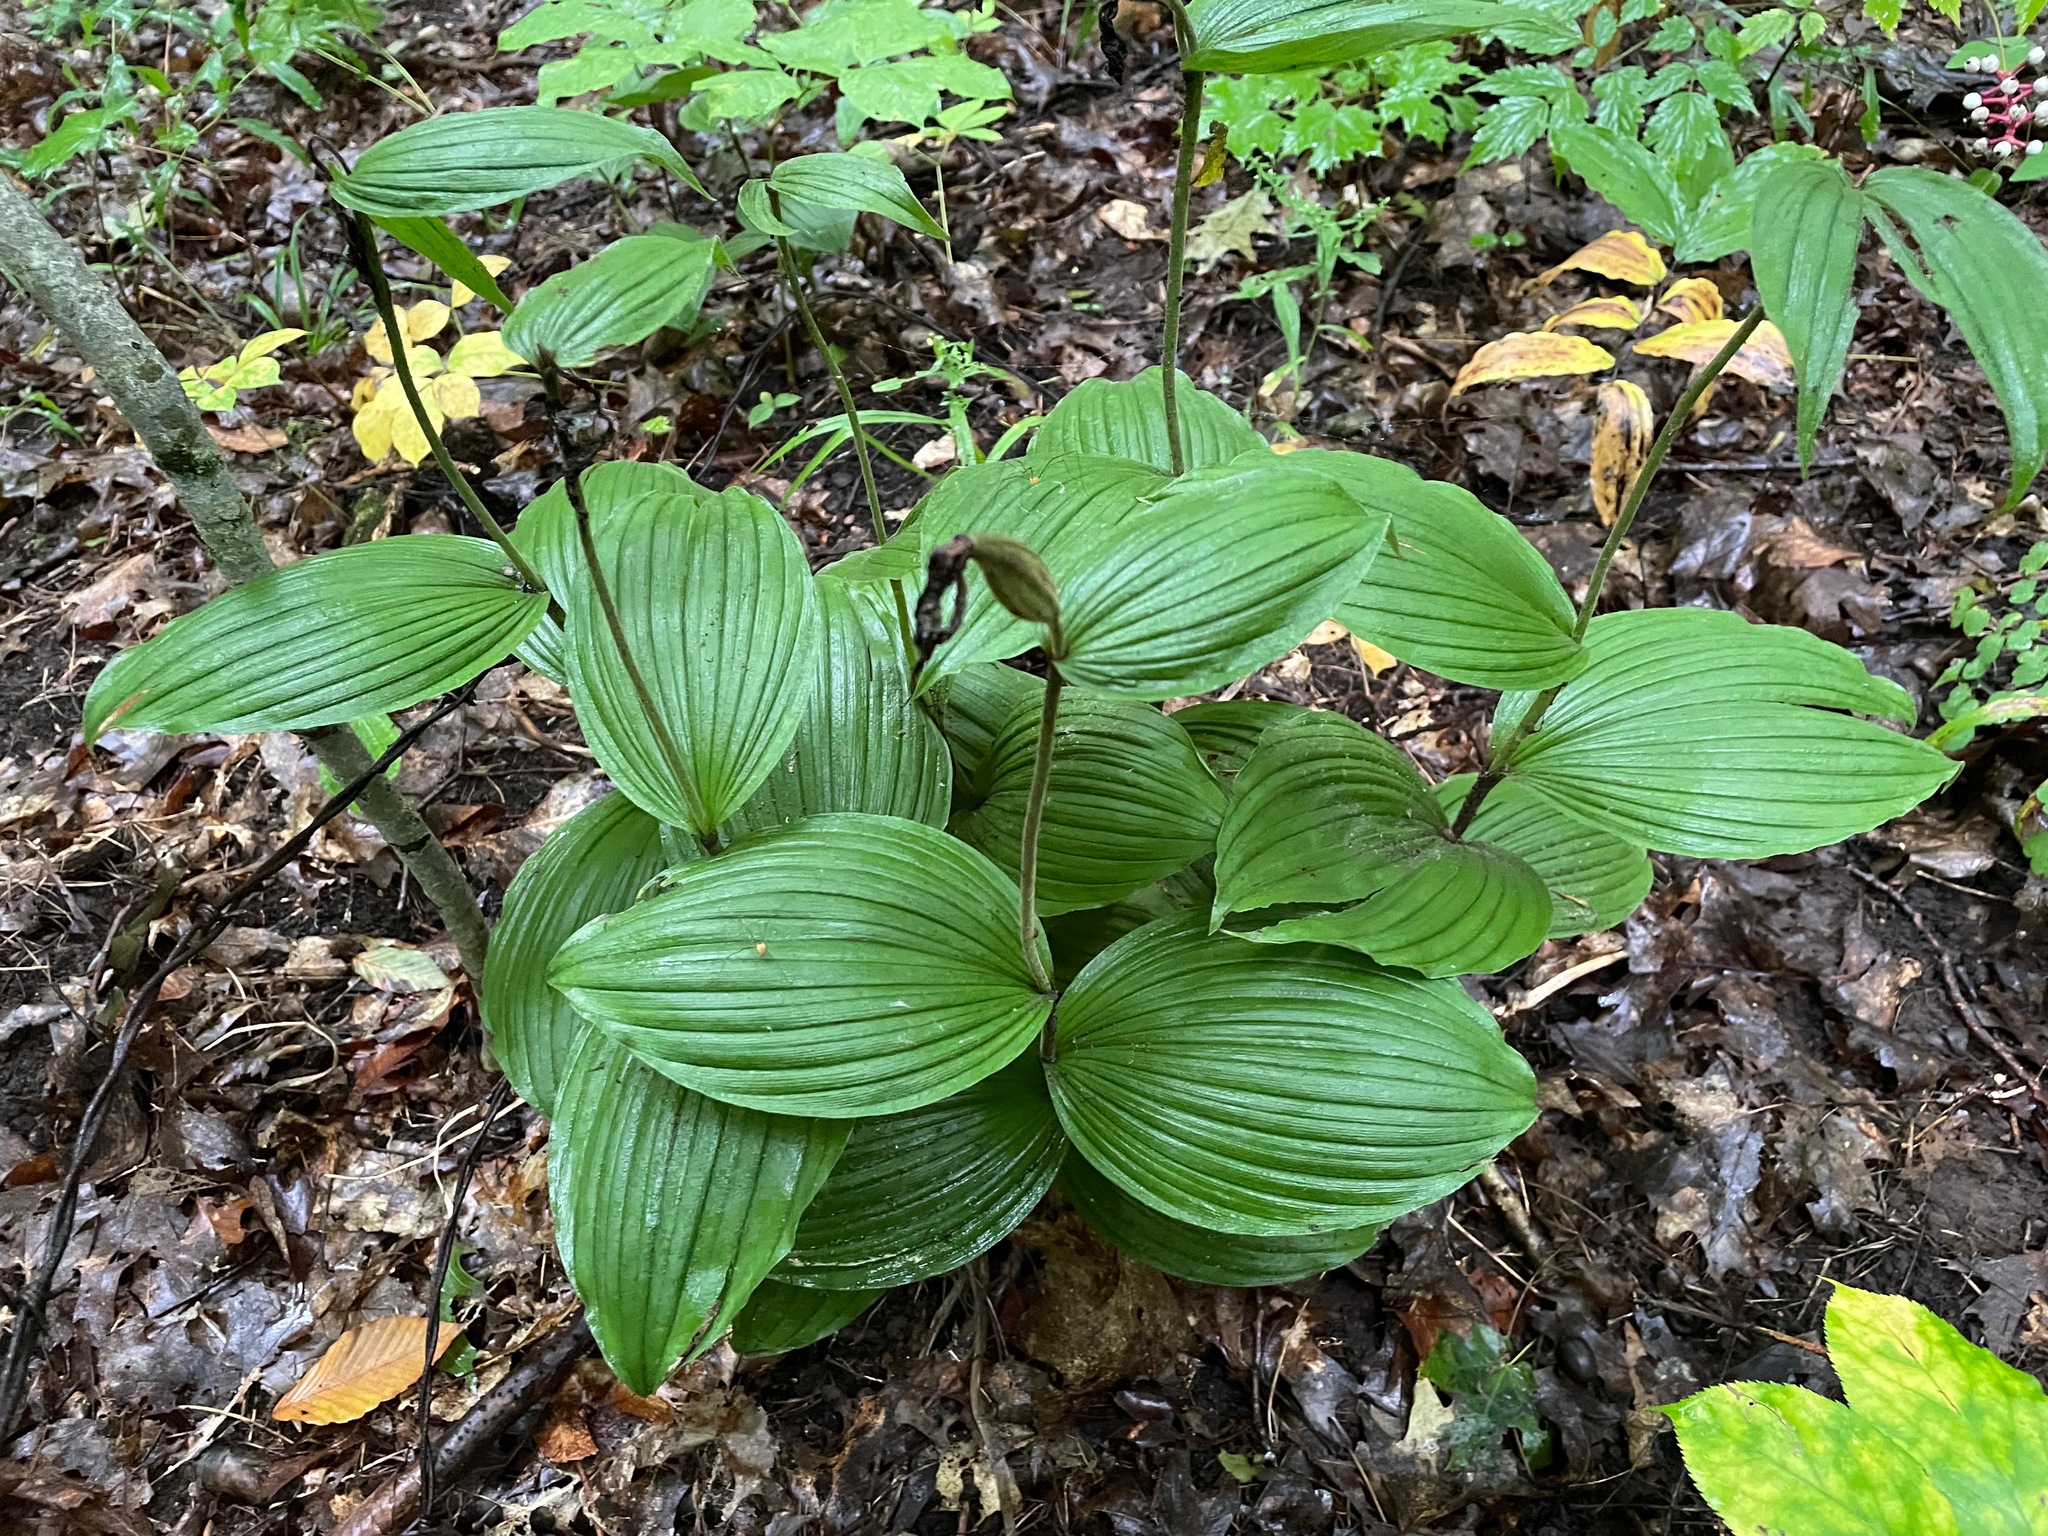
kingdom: Plantae
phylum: Tracheophyta
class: Liliopsida
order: Asparagales
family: Orchidaceae
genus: Cypripedium
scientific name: Cypripedium parviflorum
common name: American yellow lady's-slipper
